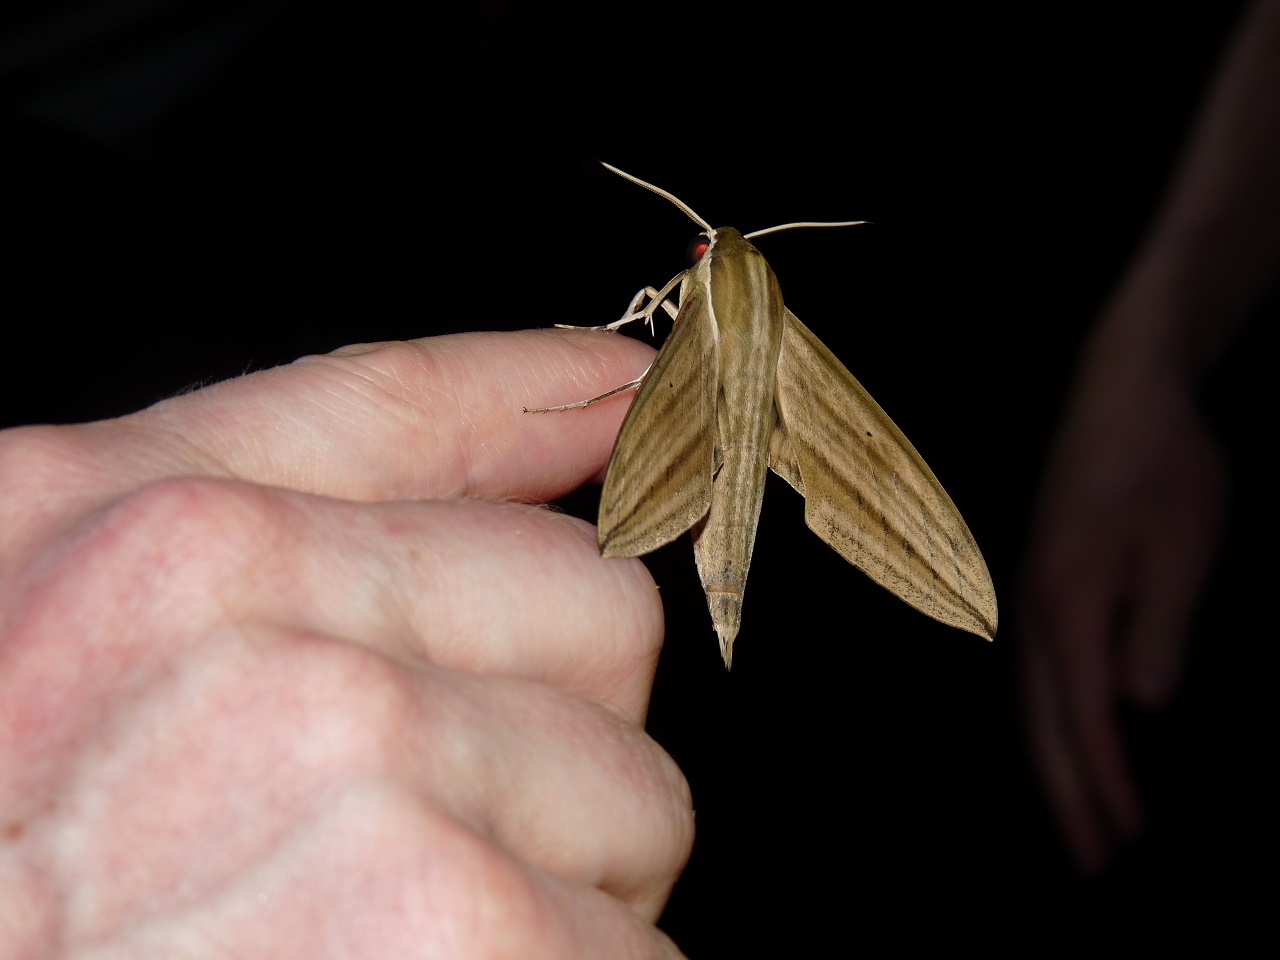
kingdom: Animalia
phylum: Arthropoda
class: Insecta
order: Lepidoptera
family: Sphingidae
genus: Theretra
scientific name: Theretra rhesus
